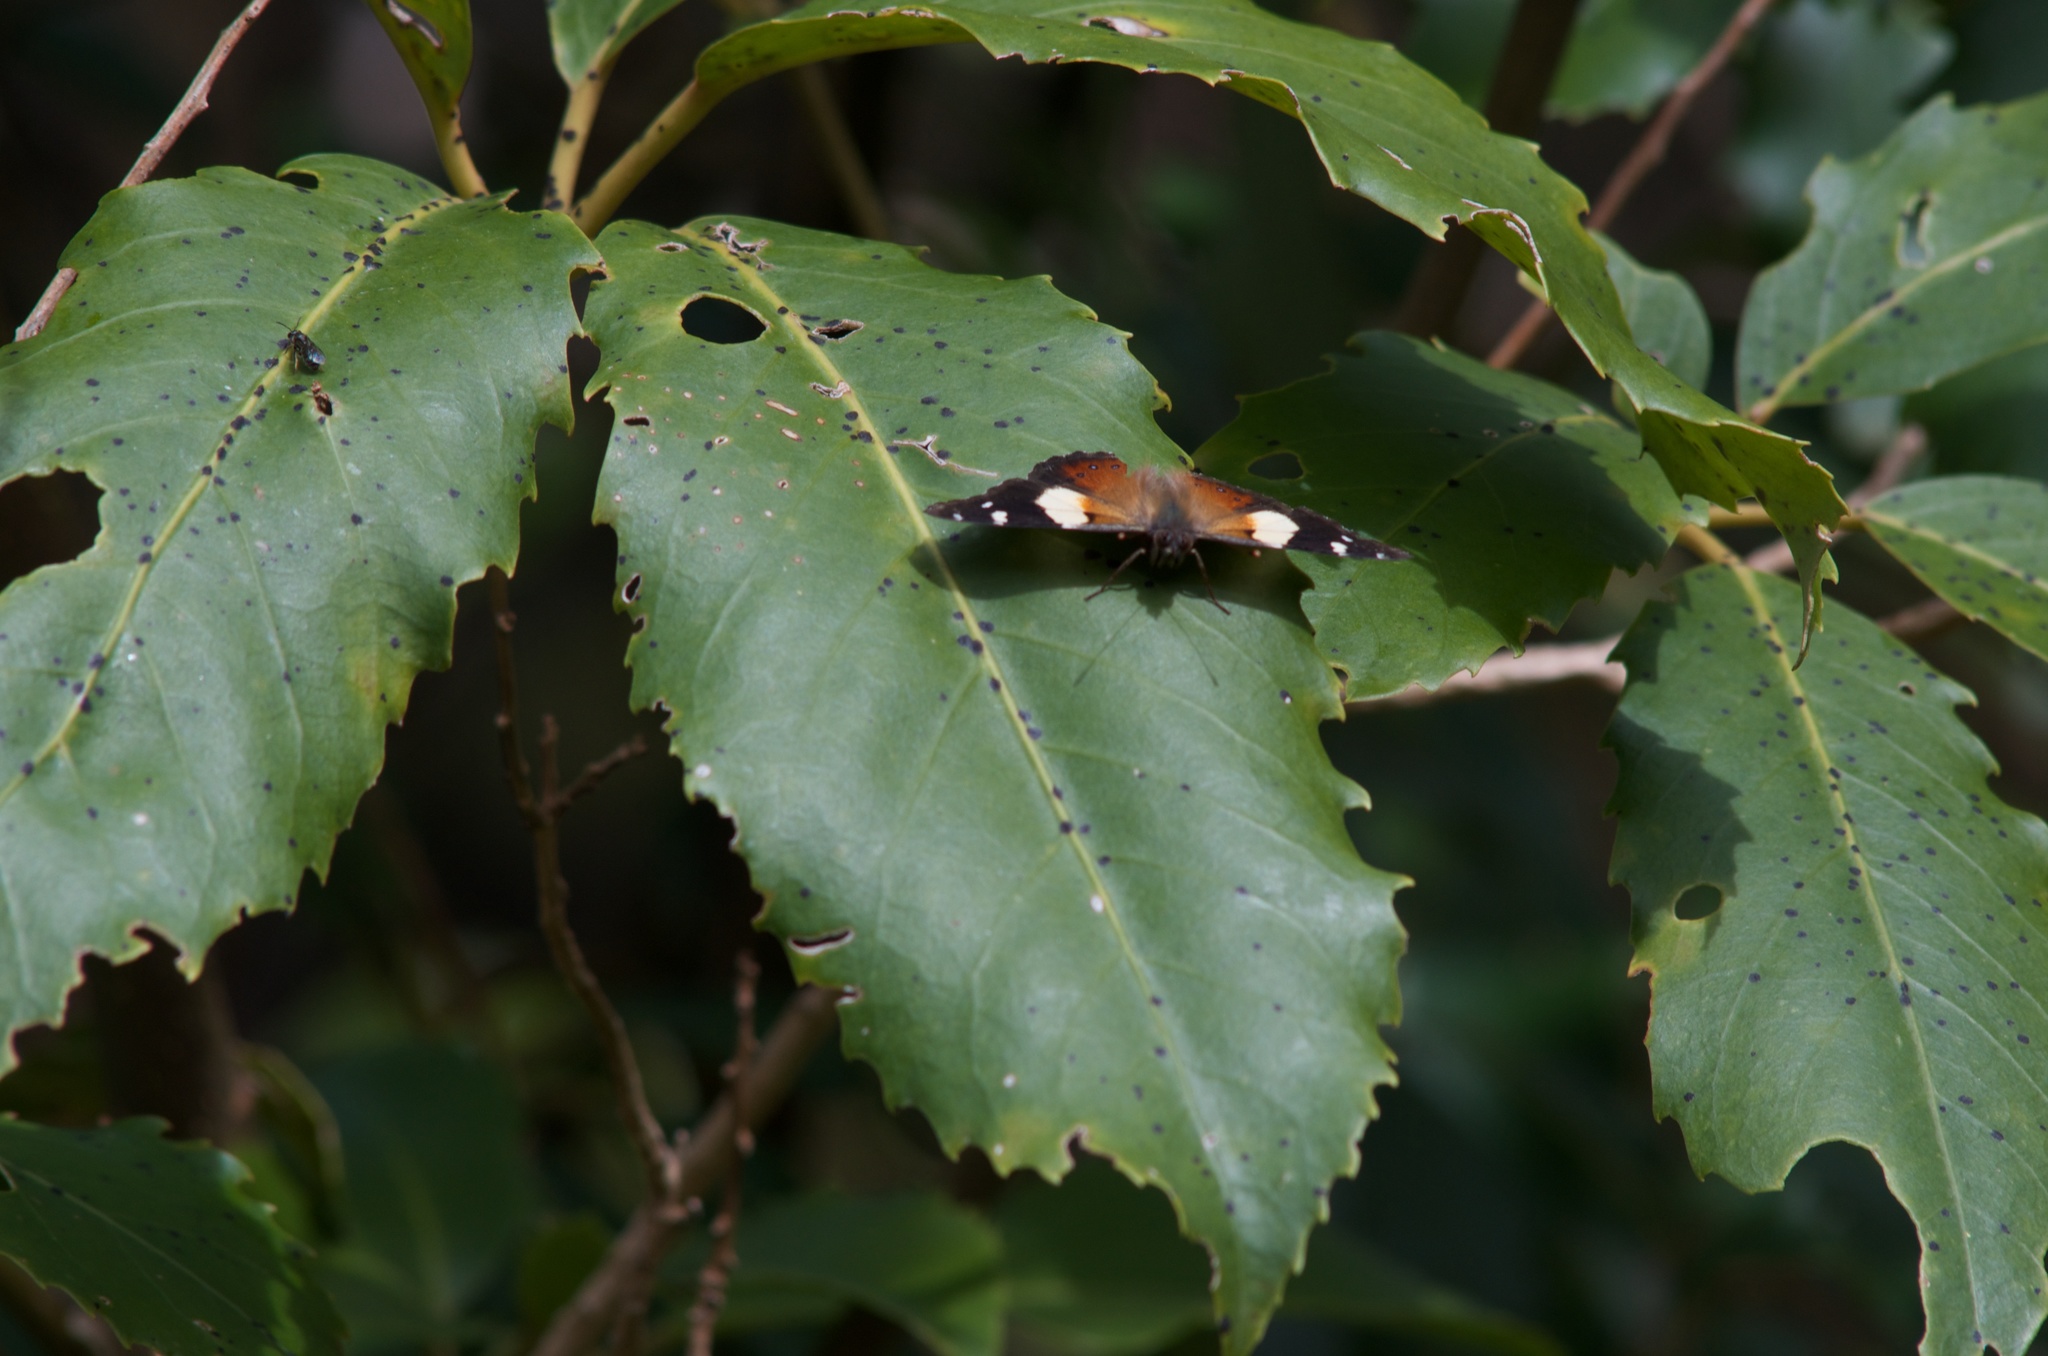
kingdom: Animalia
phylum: Arthropoda
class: Insecta
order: Lepidoptera
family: Nymphalidae
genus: Vanessa
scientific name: Vanessa itea
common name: Yellow admiral
